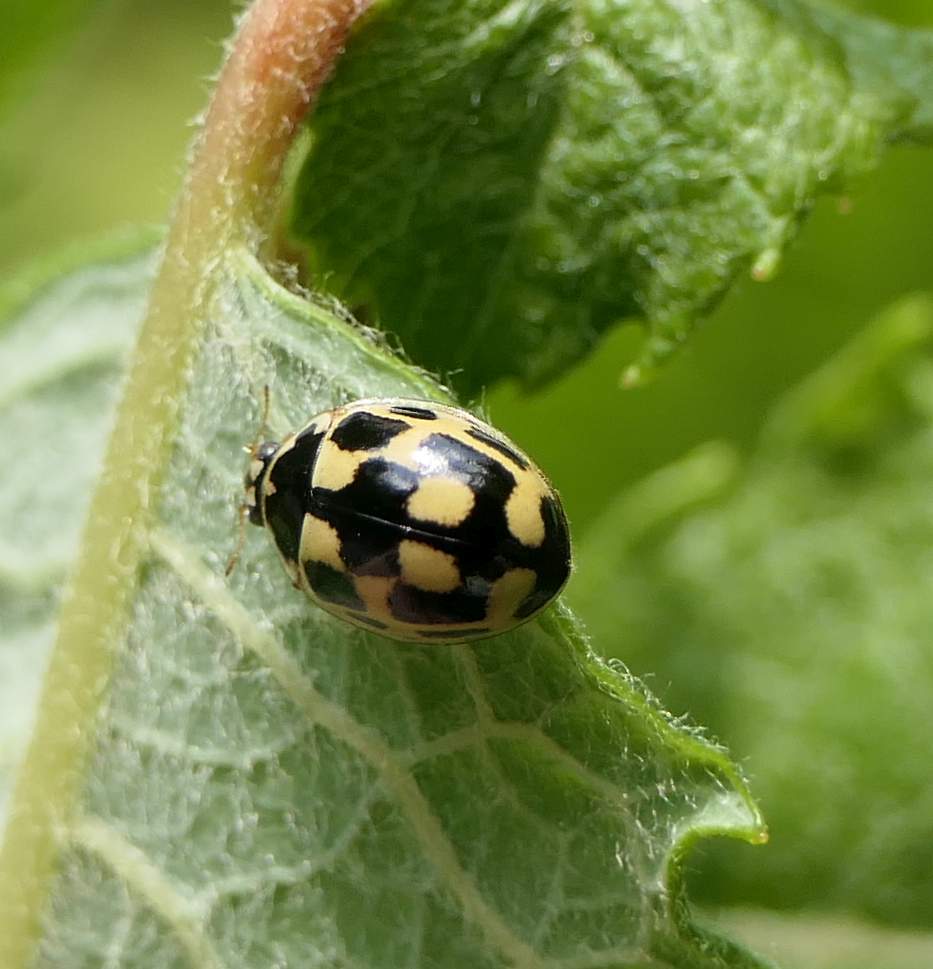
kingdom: Animalia
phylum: Arthropoda
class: Insecta
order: Coleoptera
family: Coccinellidae
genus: Propylaea
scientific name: Propylaea quatuordecimpunctata
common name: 14-spotted ladybird beetle
